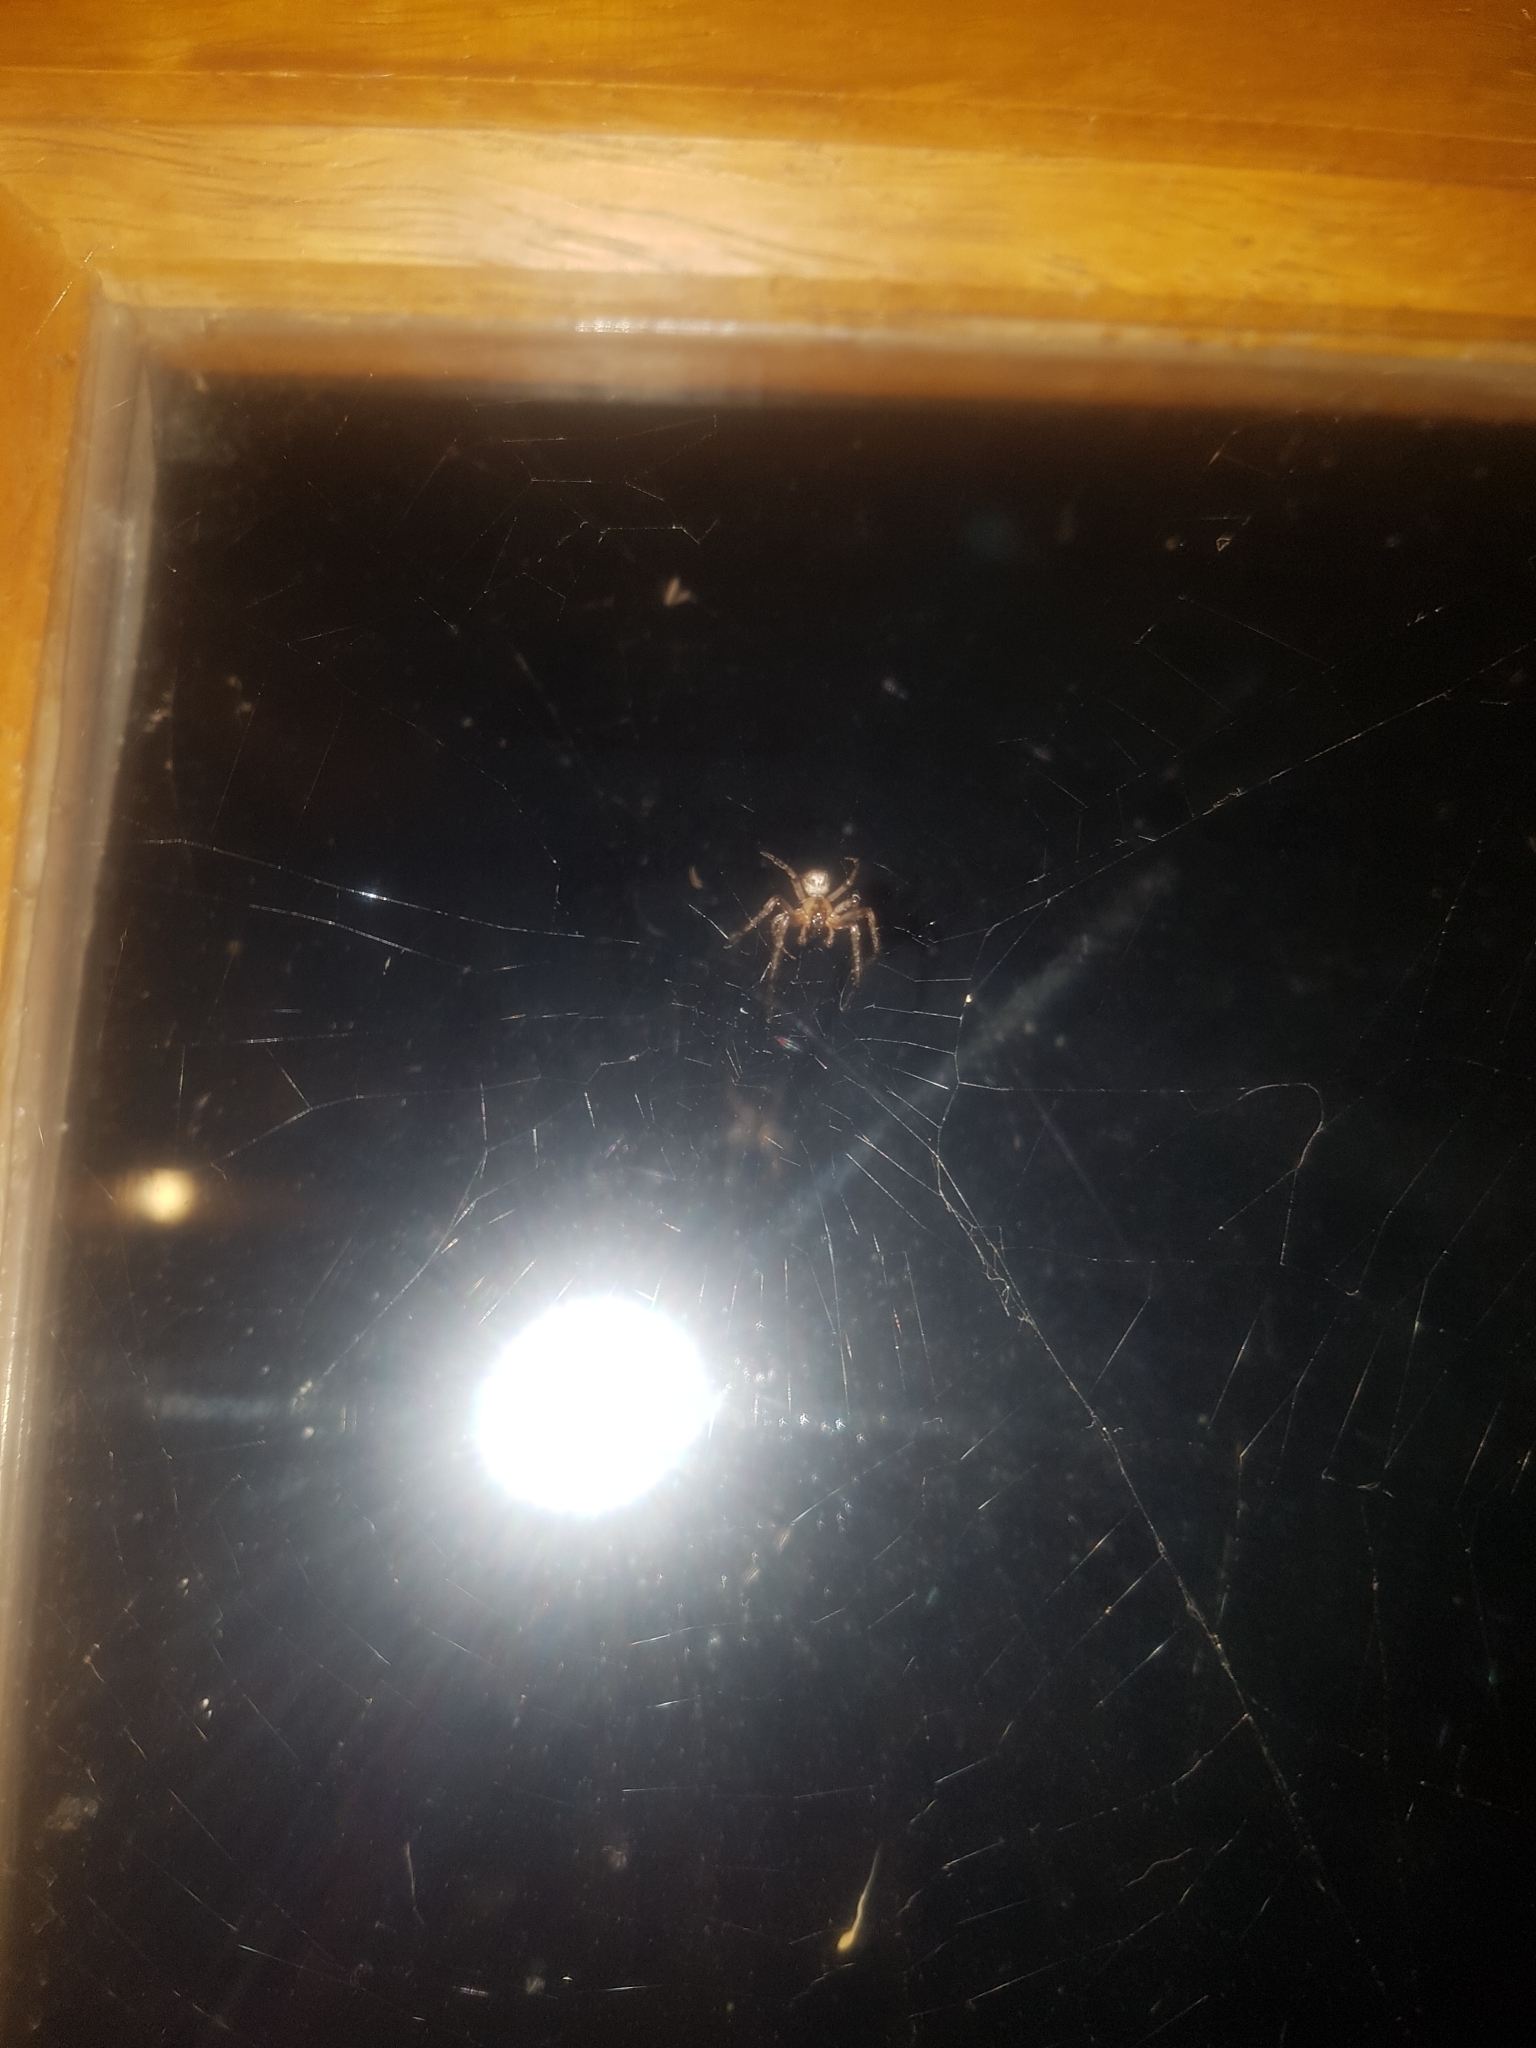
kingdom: Animalia
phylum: Arthropoda
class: Arachnida
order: Araneae
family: Araneidae
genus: Zygiella
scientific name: Zygiella x-notata
